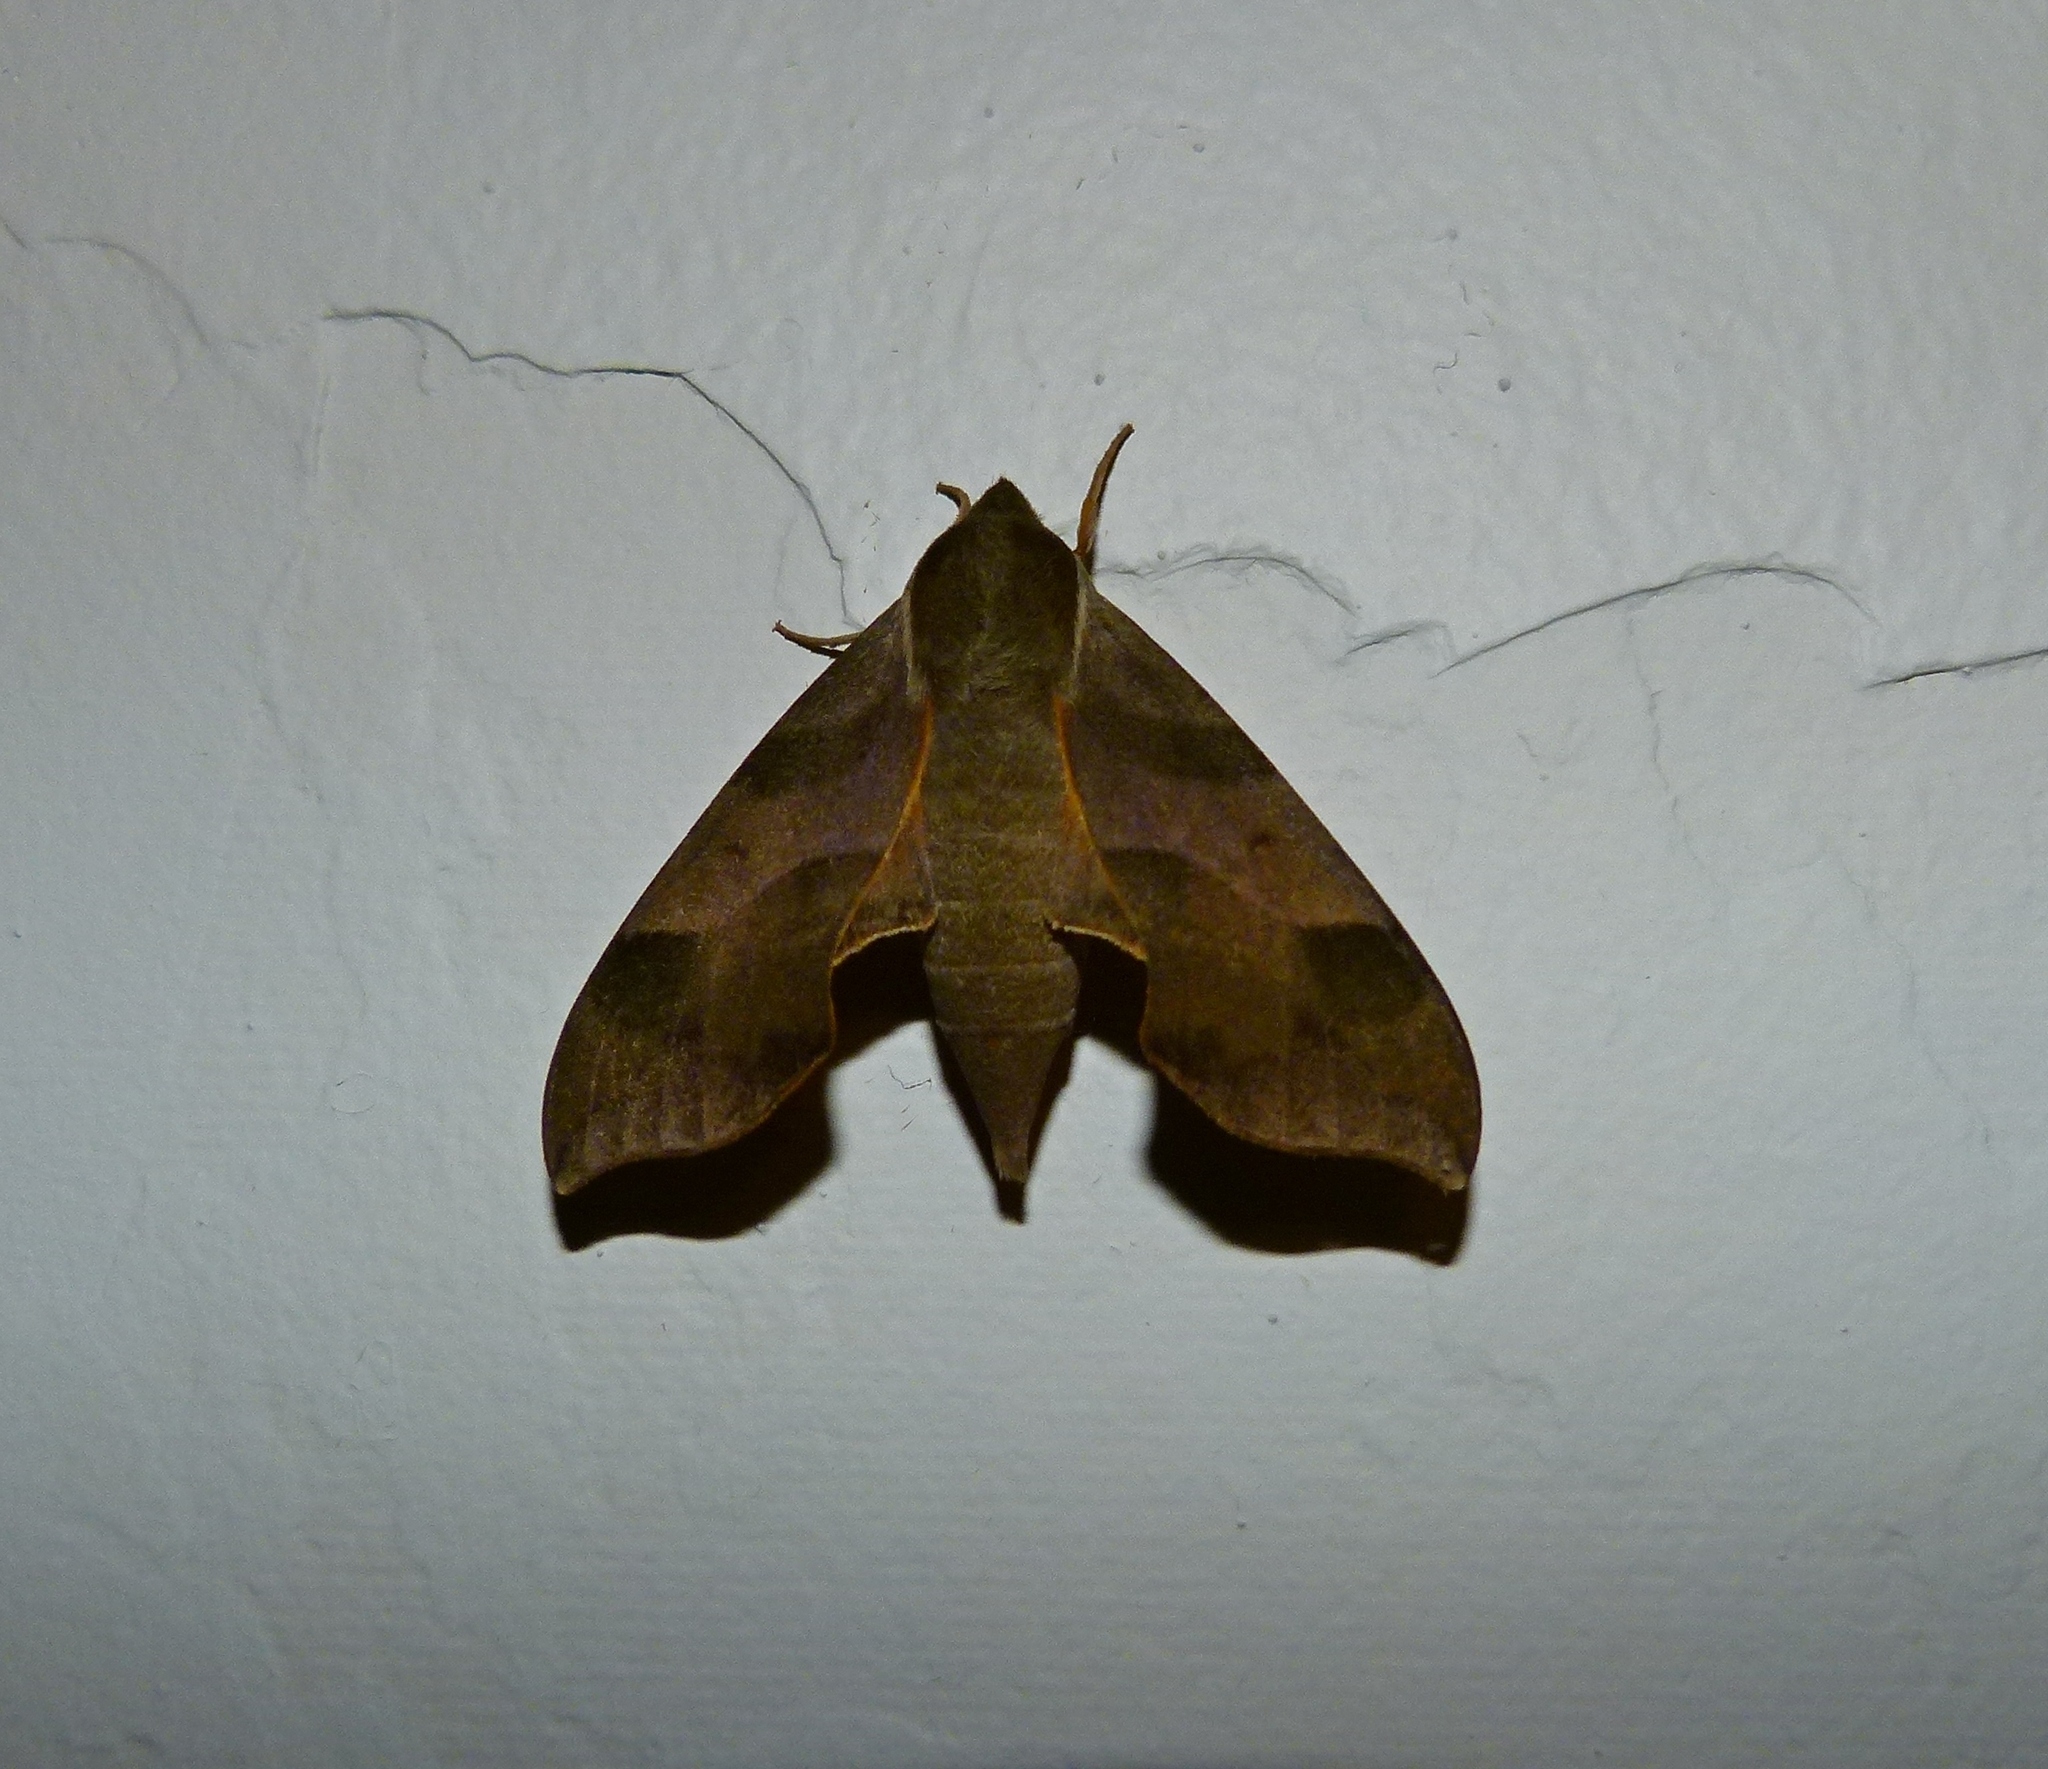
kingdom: Animalia
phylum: Arthropoda
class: Insecta
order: Lepidoptera
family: Sphingidae
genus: Darapsa
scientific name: Darapsa myron
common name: Hog sphinx
